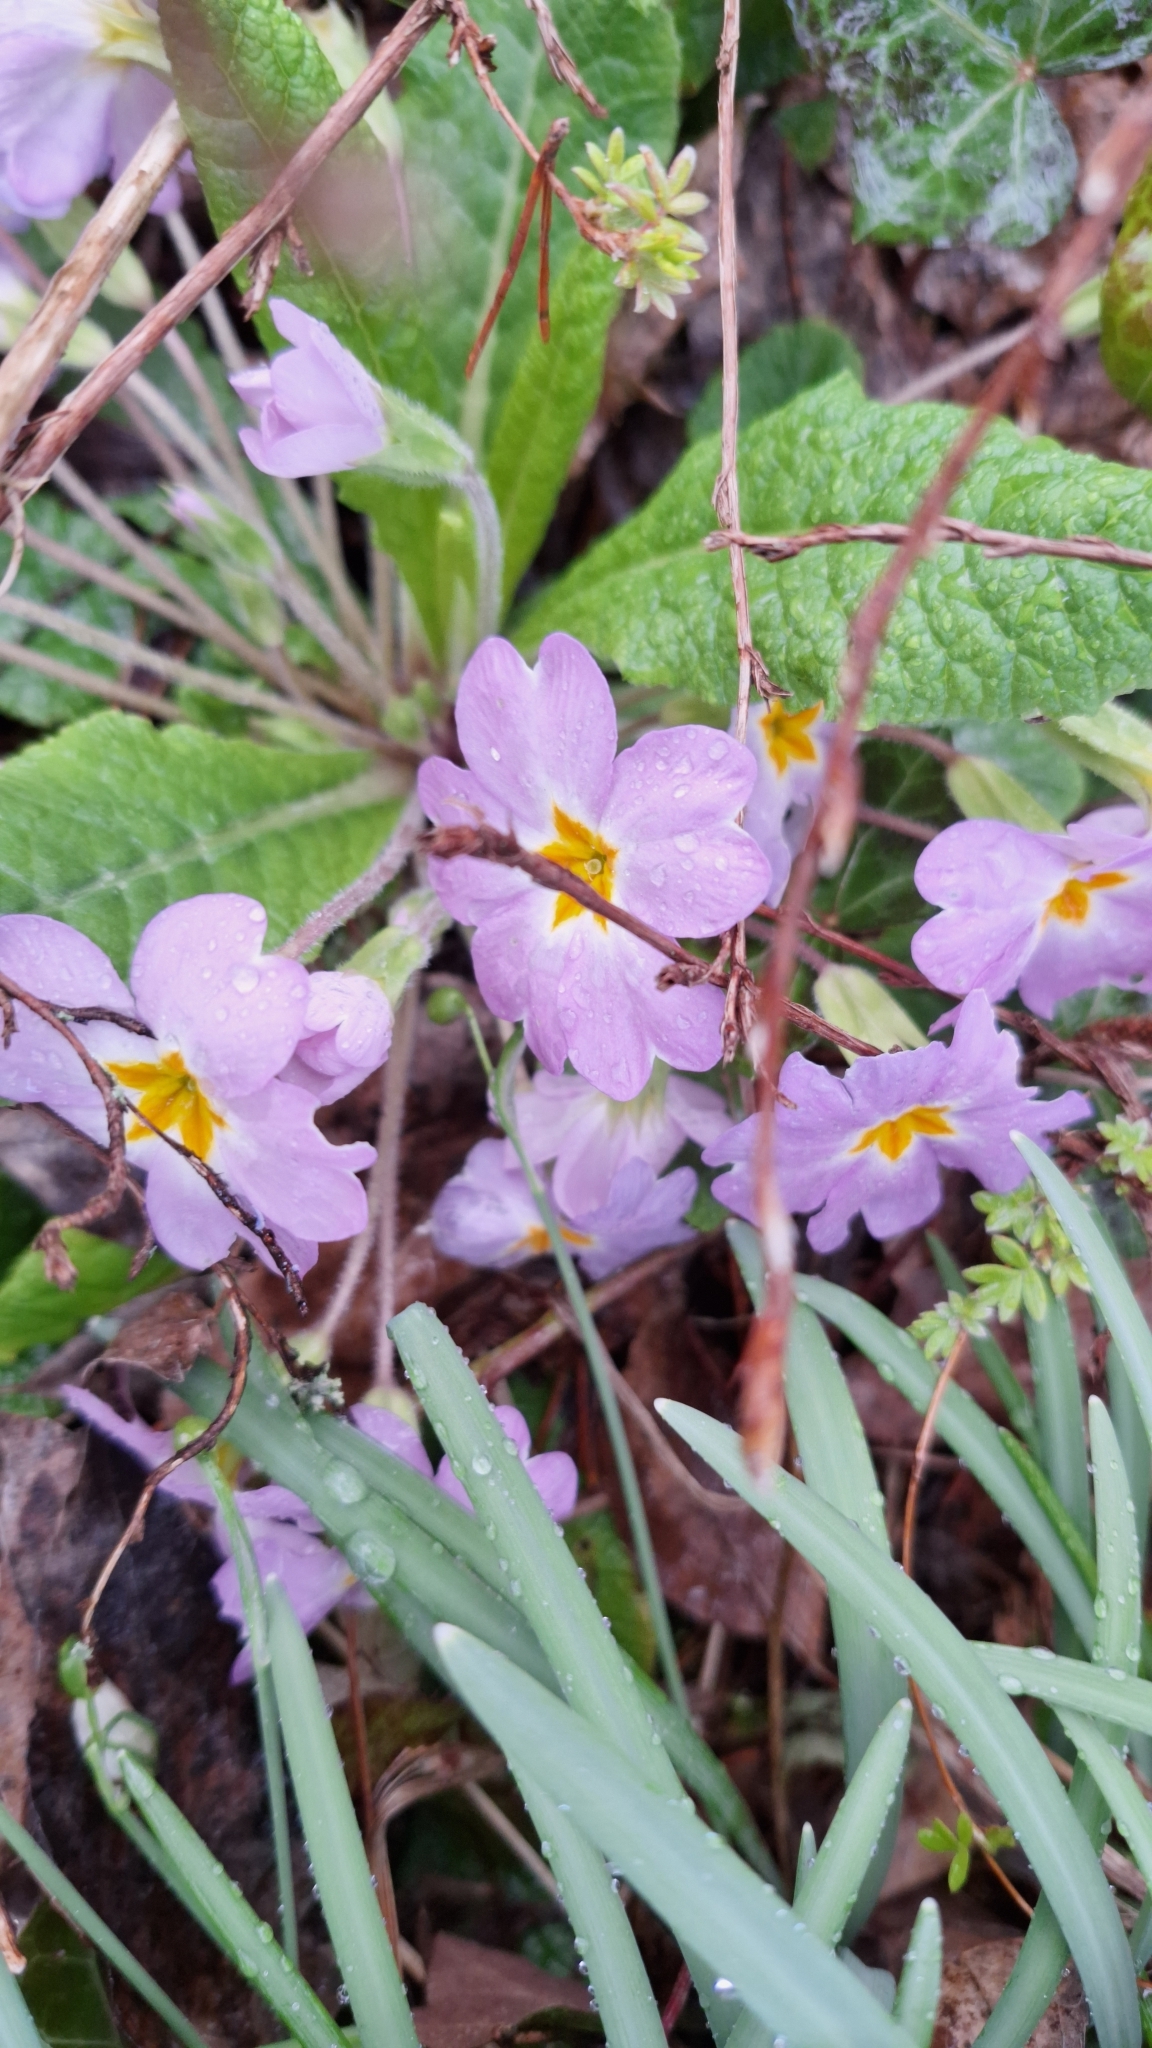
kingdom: Plantae
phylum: Tracheophyta
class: Magnoliopsida
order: Ericales
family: Primulaceae
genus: Primula
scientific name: Primula vulgaris
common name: Primrose
